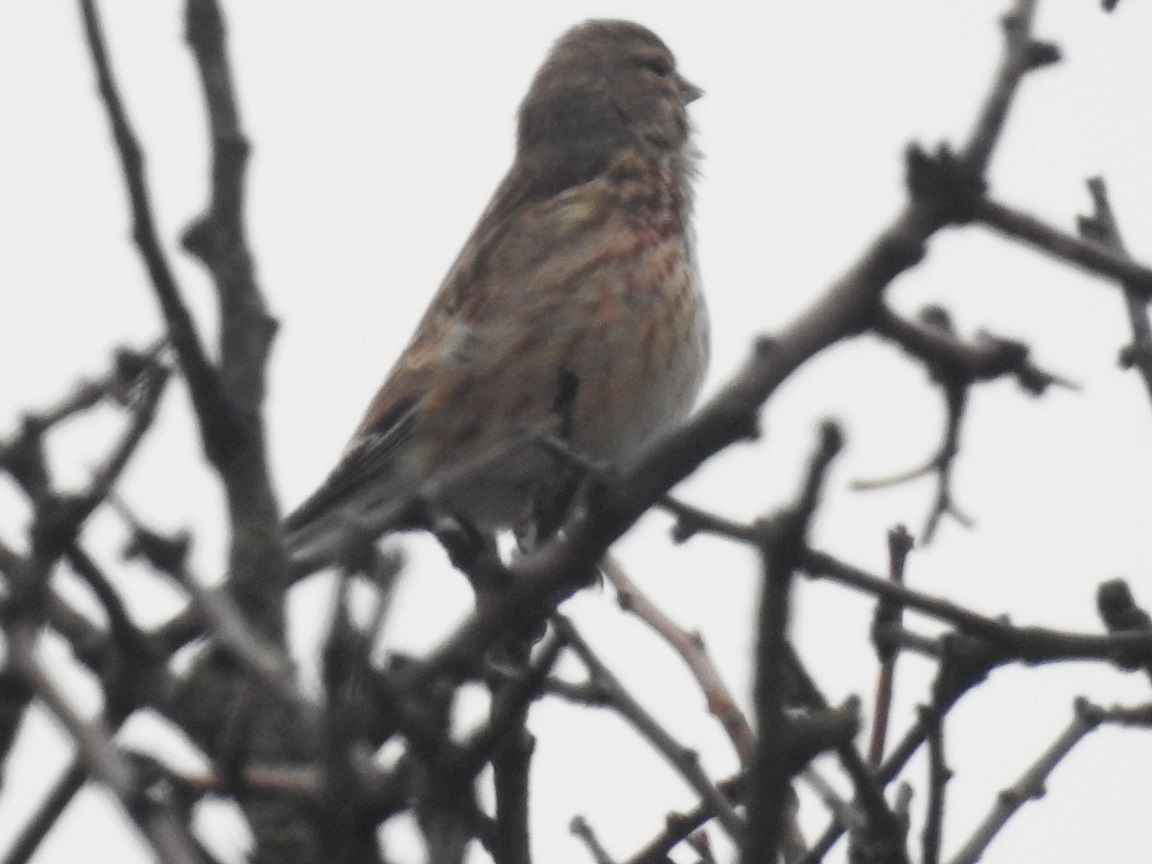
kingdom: Animalia
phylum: Chordata
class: Aves
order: Passeriformes
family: Fringillidae
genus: Linaria
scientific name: Linaria cannabina
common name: Common linnet
